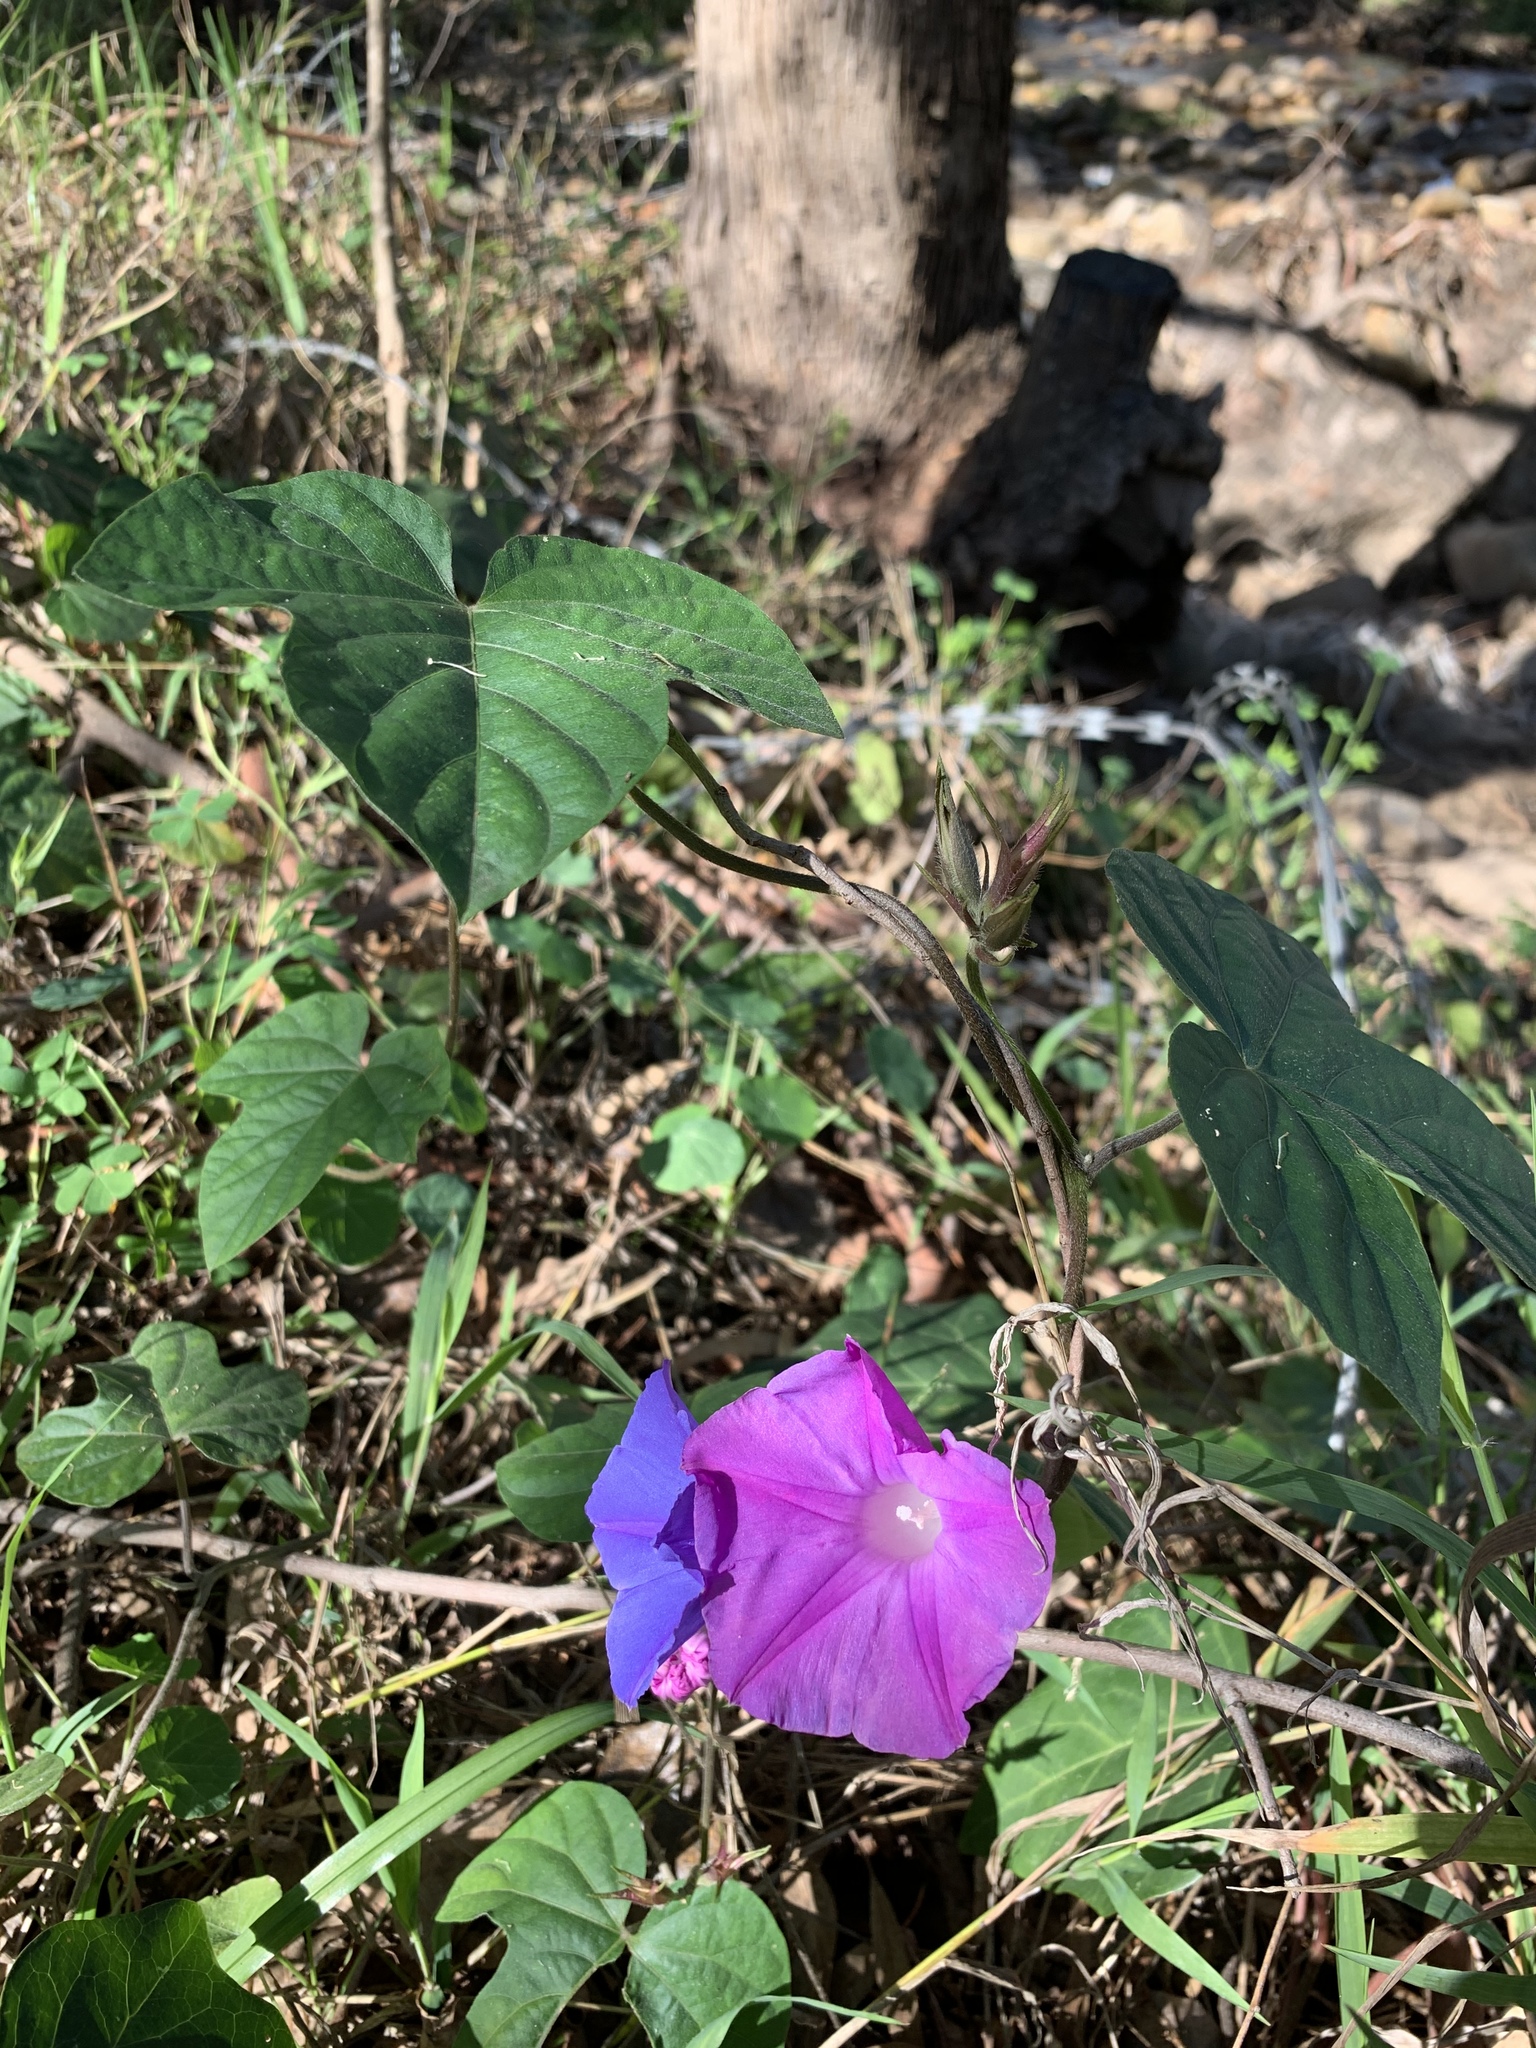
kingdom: Plantae
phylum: Tracheophyta
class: Magnoliopsida
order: Solanales
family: Convolvulaceae
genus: Ipomoea
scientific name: Ipomoea indica
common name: Blue dawnflower
